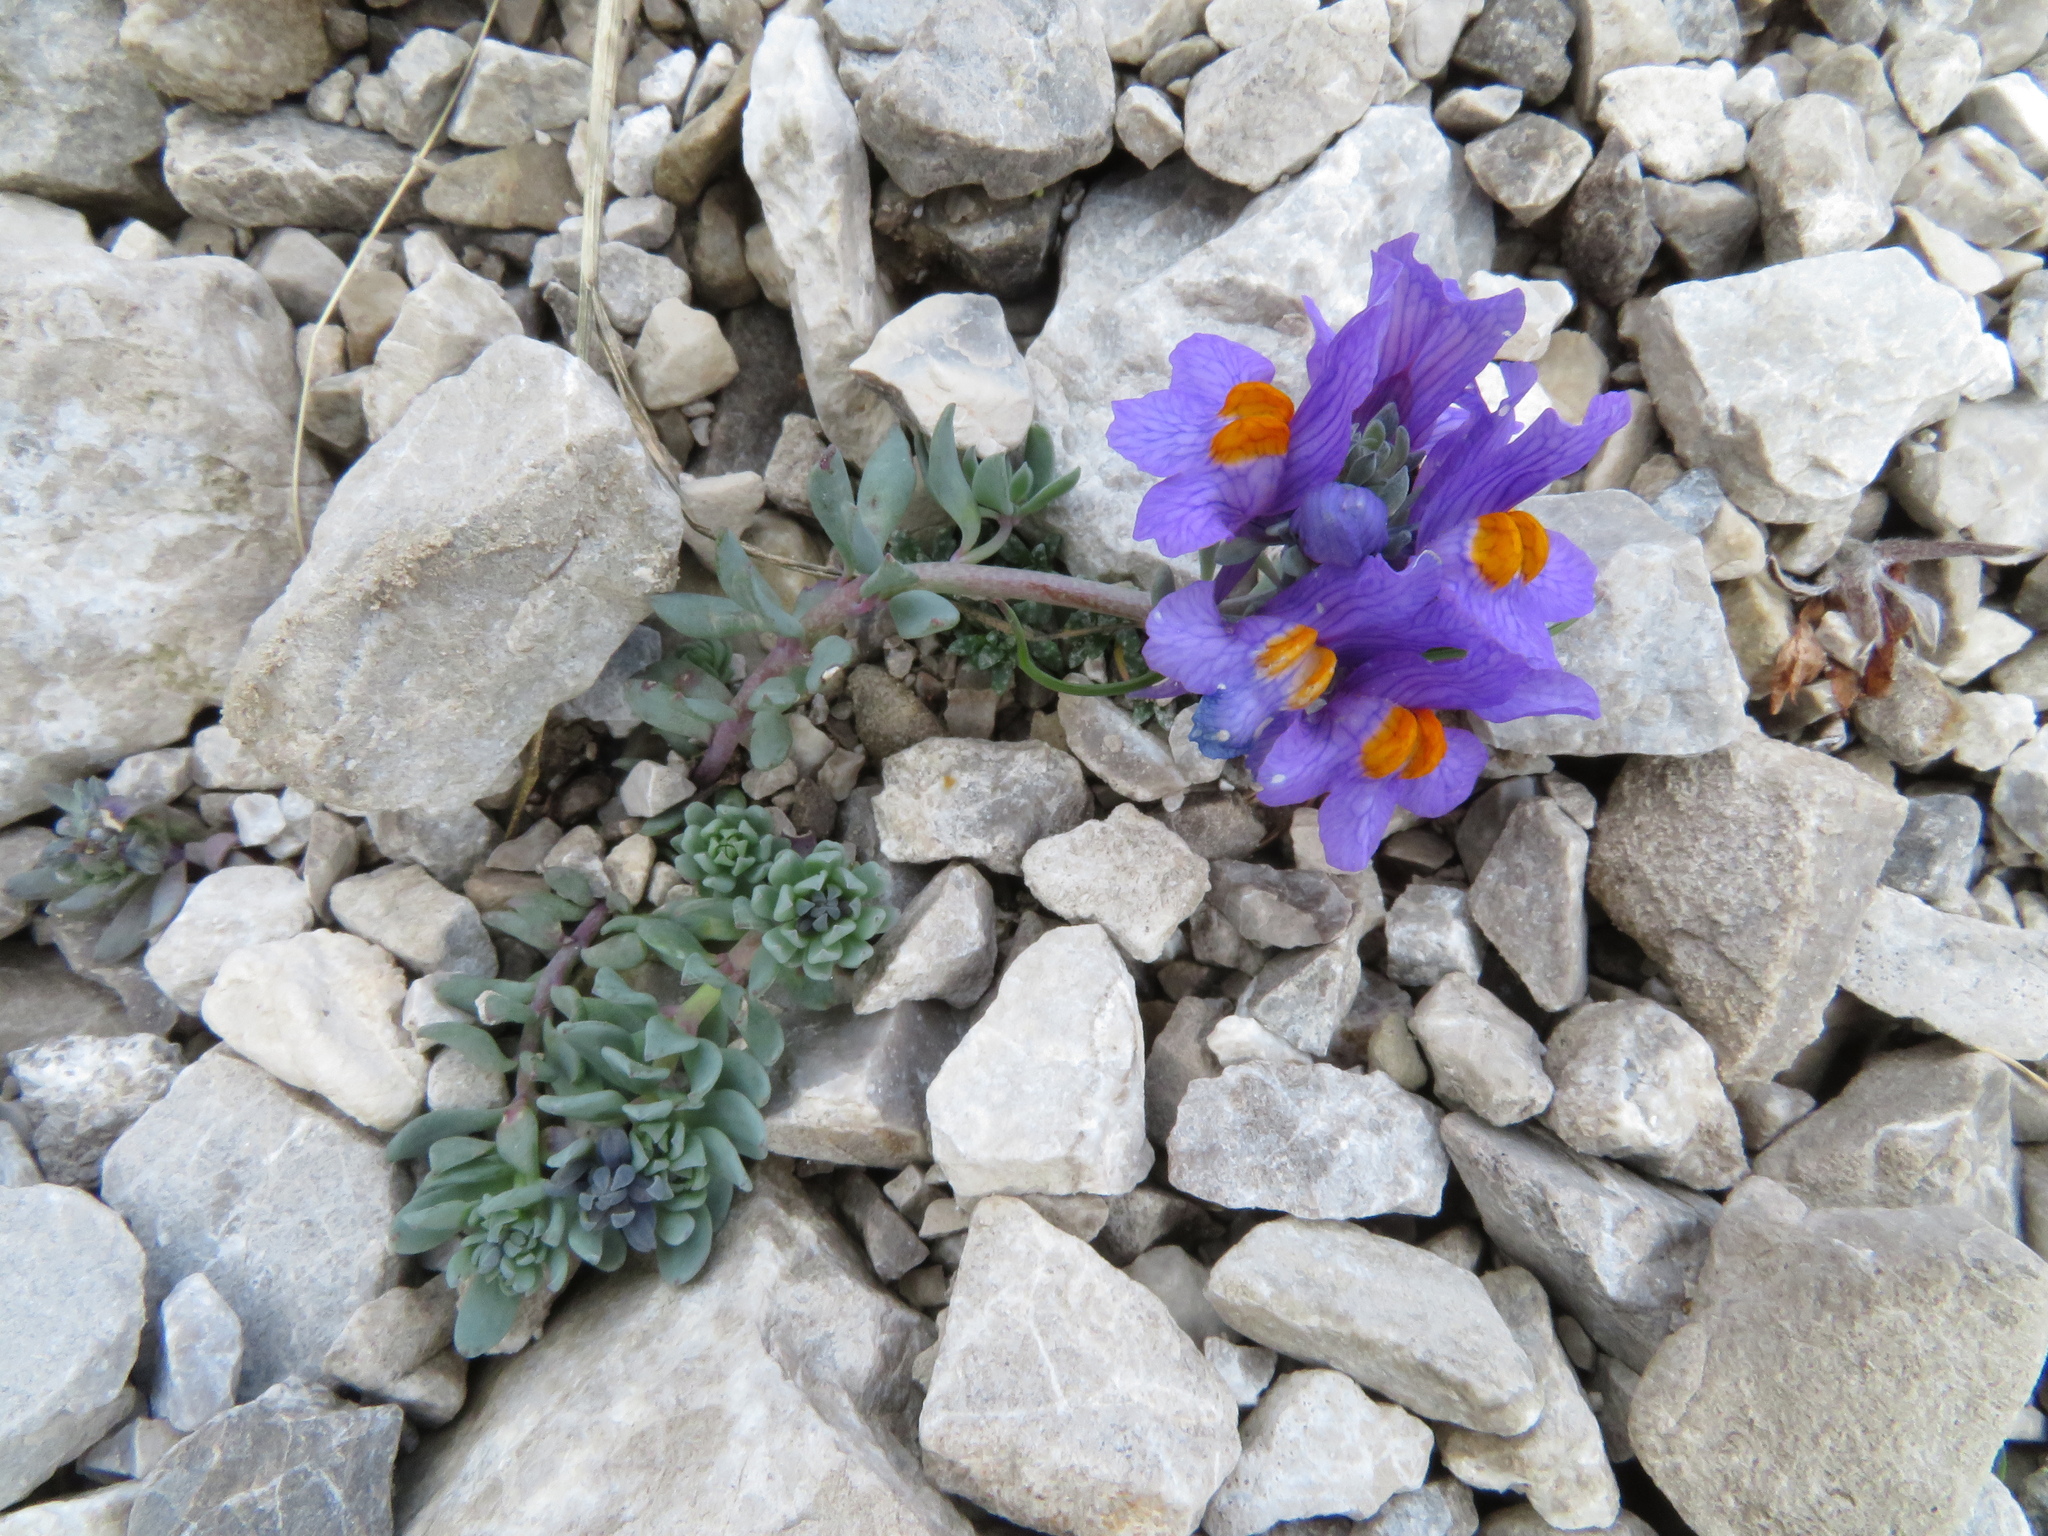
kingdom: Plantae
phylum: Tracheophyta
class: Magnoliopsida
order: Lamiales
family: Plantaginaceae
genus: Linaria
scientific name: Linaria alpina
